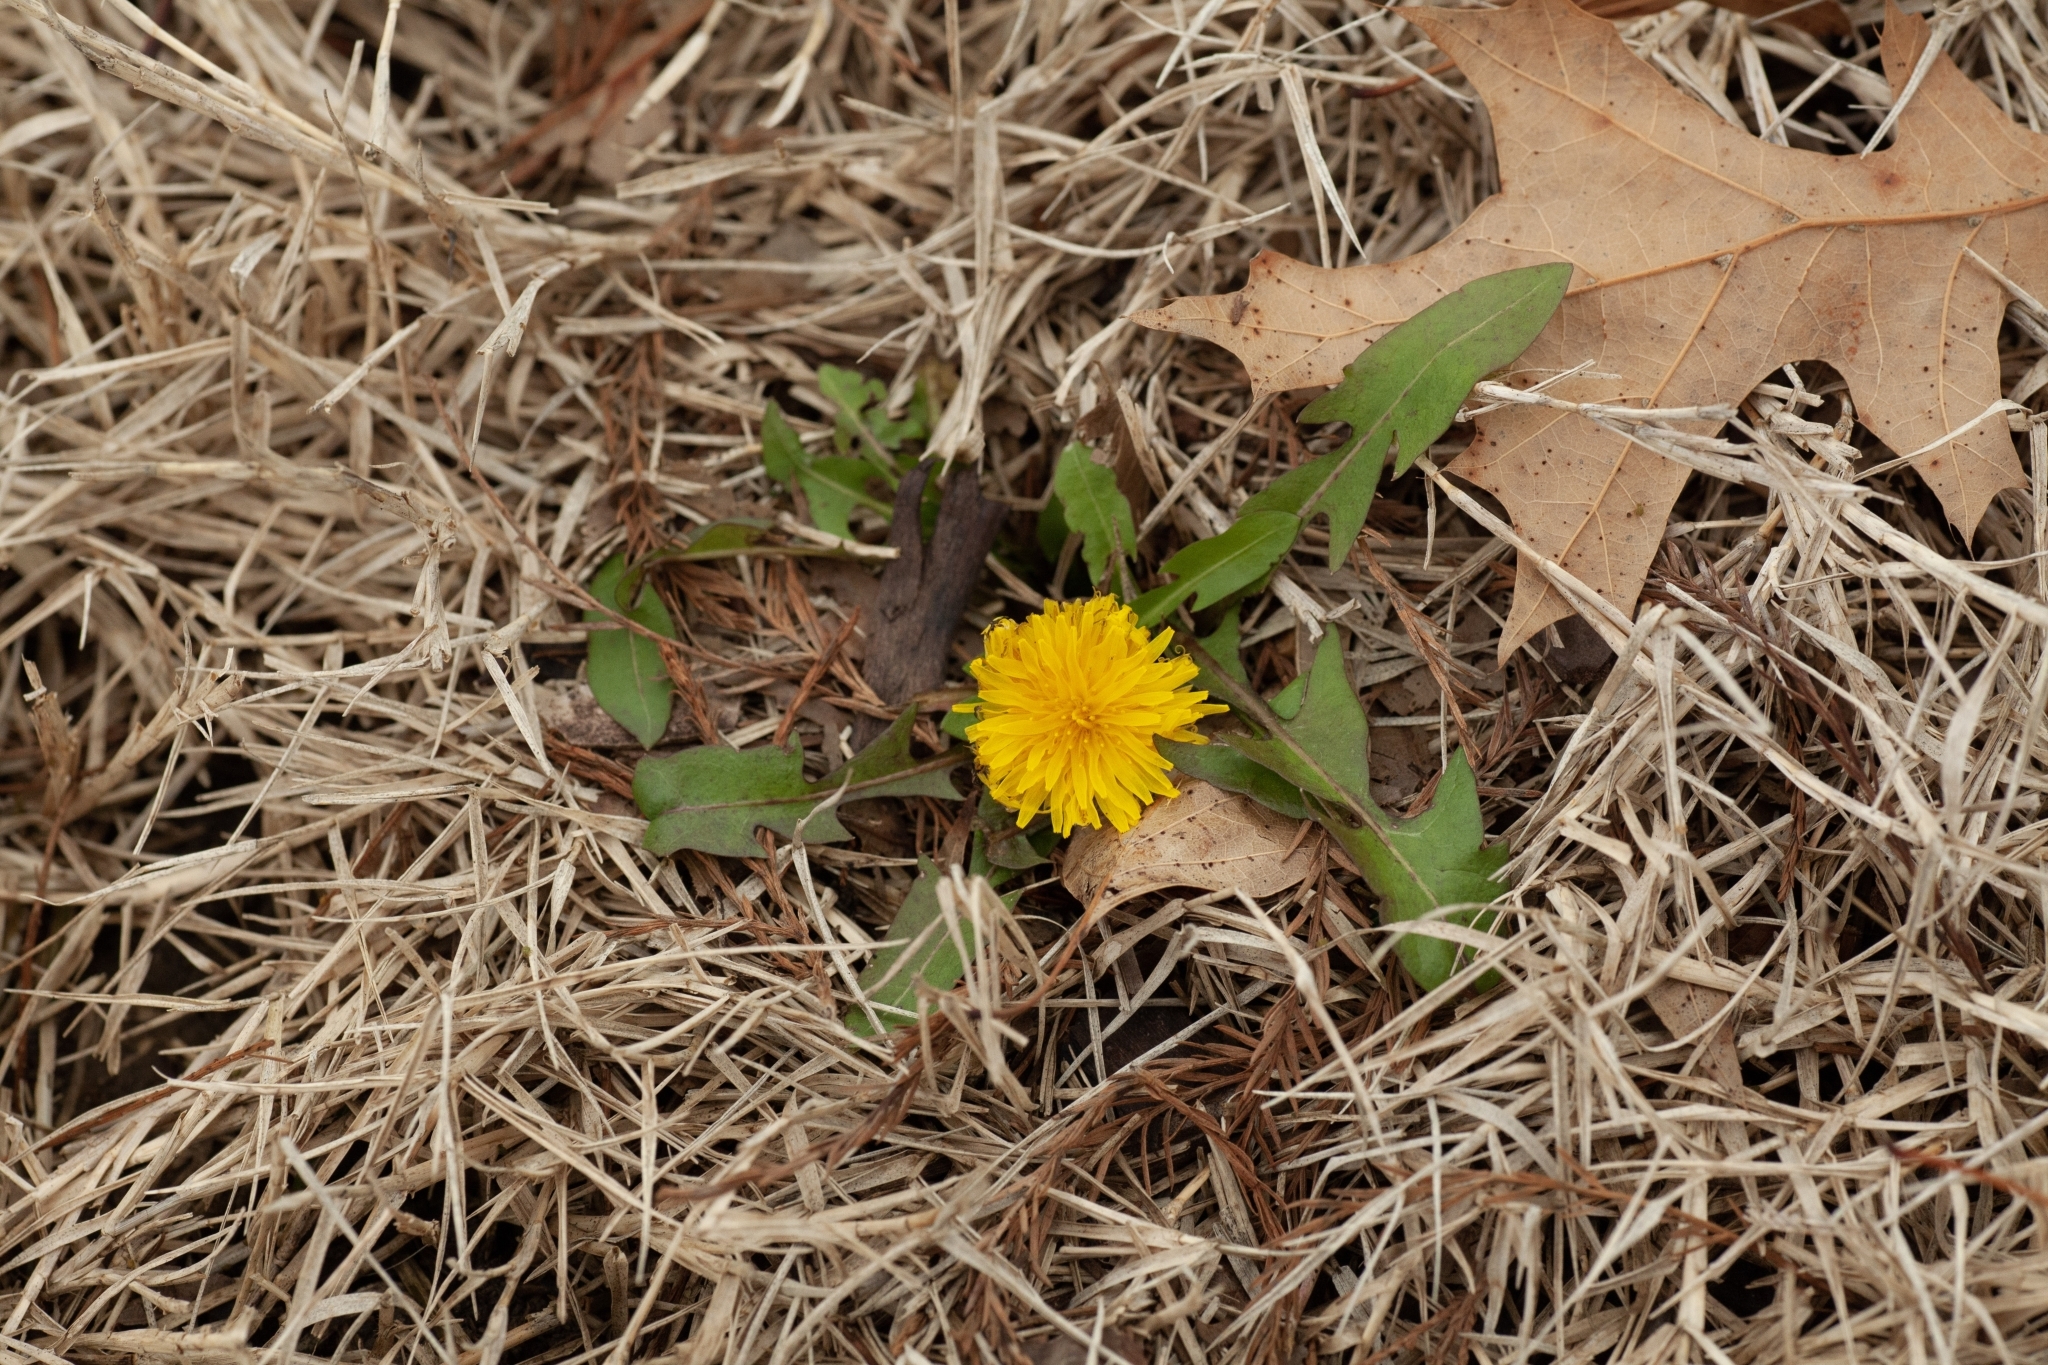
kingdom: Plantae
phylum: Tracheophyta
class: Magnoliopsida
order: Asterales
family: Asteraceae
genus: Taraxacum
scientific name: Taraxacum officinale
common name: Common dandelion
